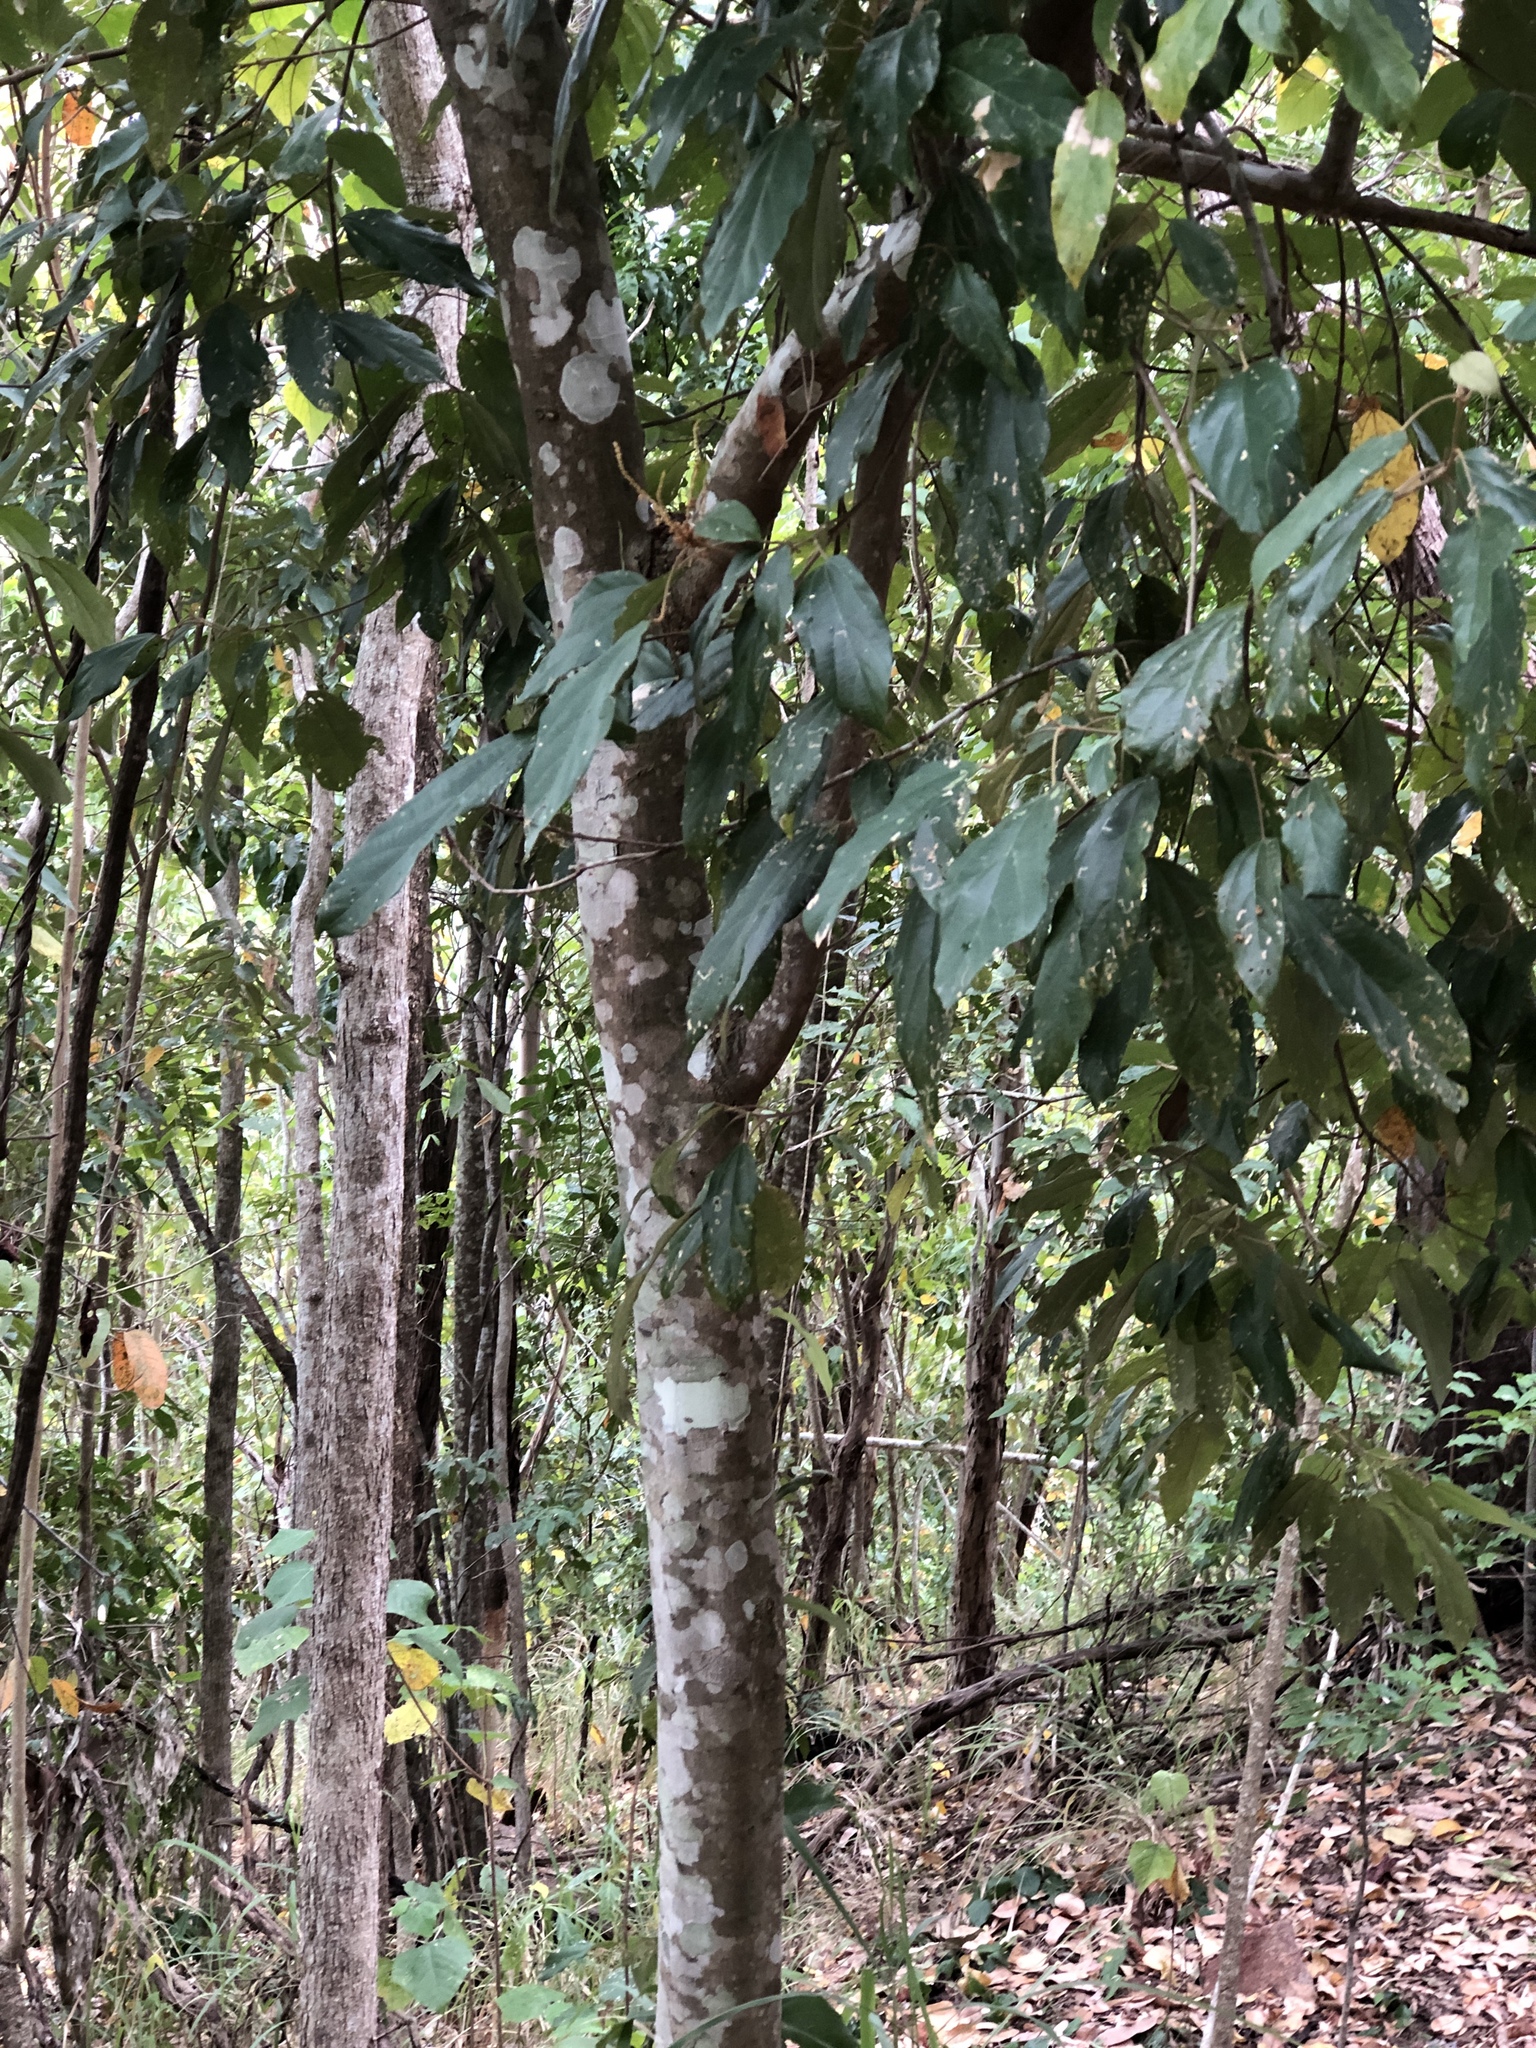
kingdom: Plantae
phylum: Tracheophyta
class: Magnoliopsida
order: Malpighiales
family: Euphorbiaceae
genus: Mallotus
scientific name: Mallotus philippensis
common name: Kamala tree
